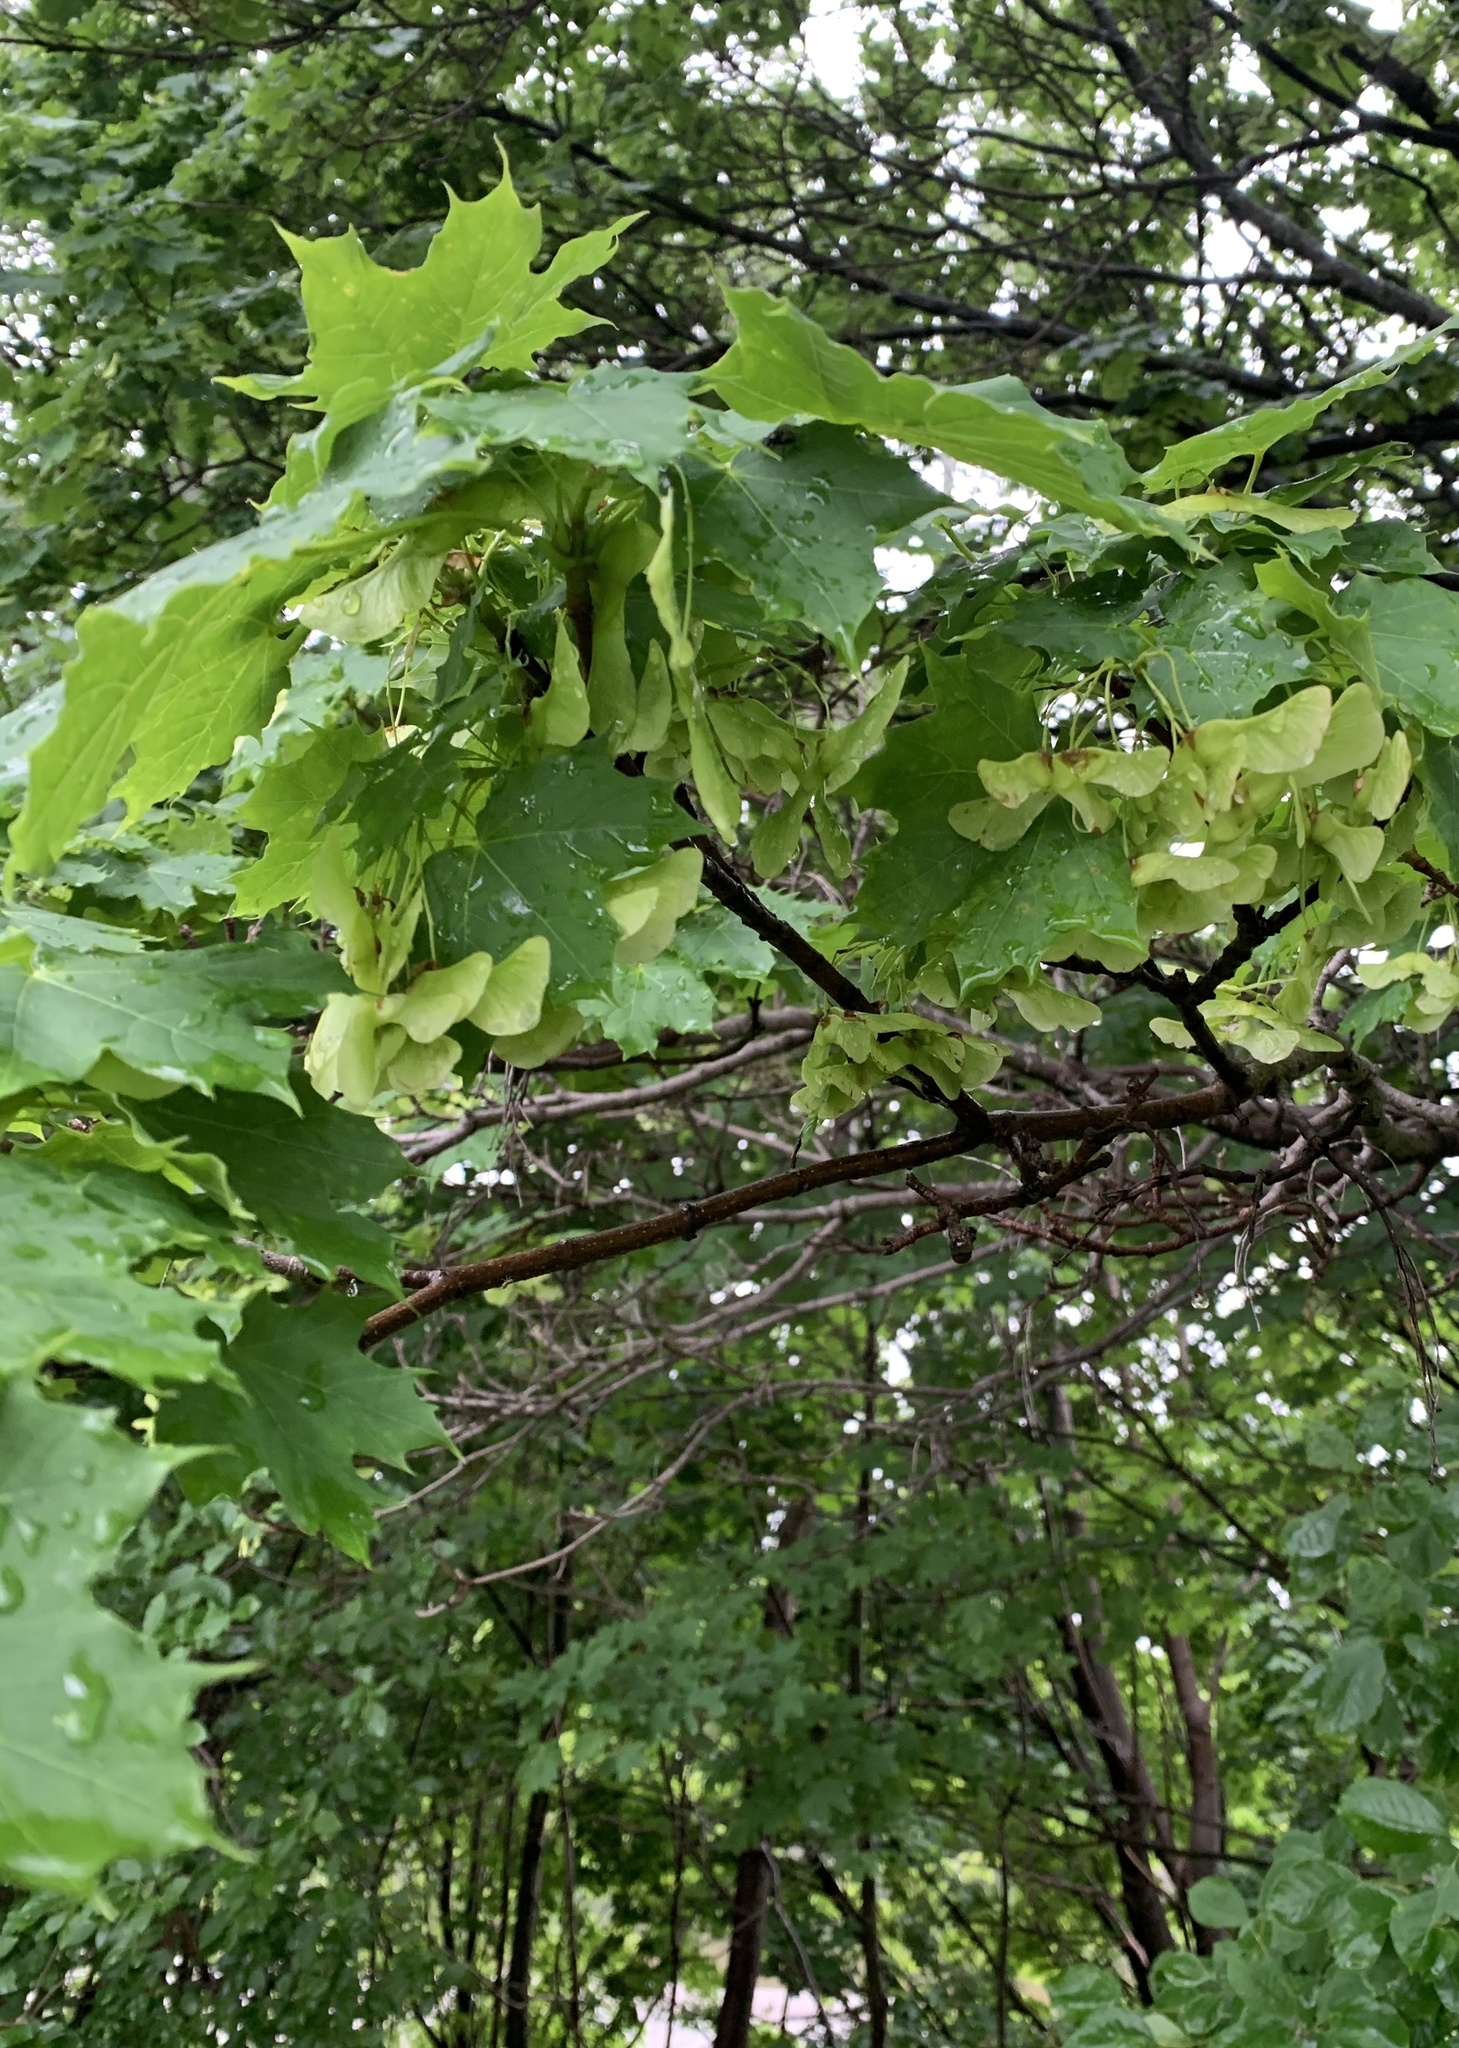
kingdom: Plantae
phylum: Tracheophyta
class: Magnoliopsida
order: Sapindales
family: Sapindaceae
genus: Acer
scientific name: Acer platanoides
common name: Norway maple
